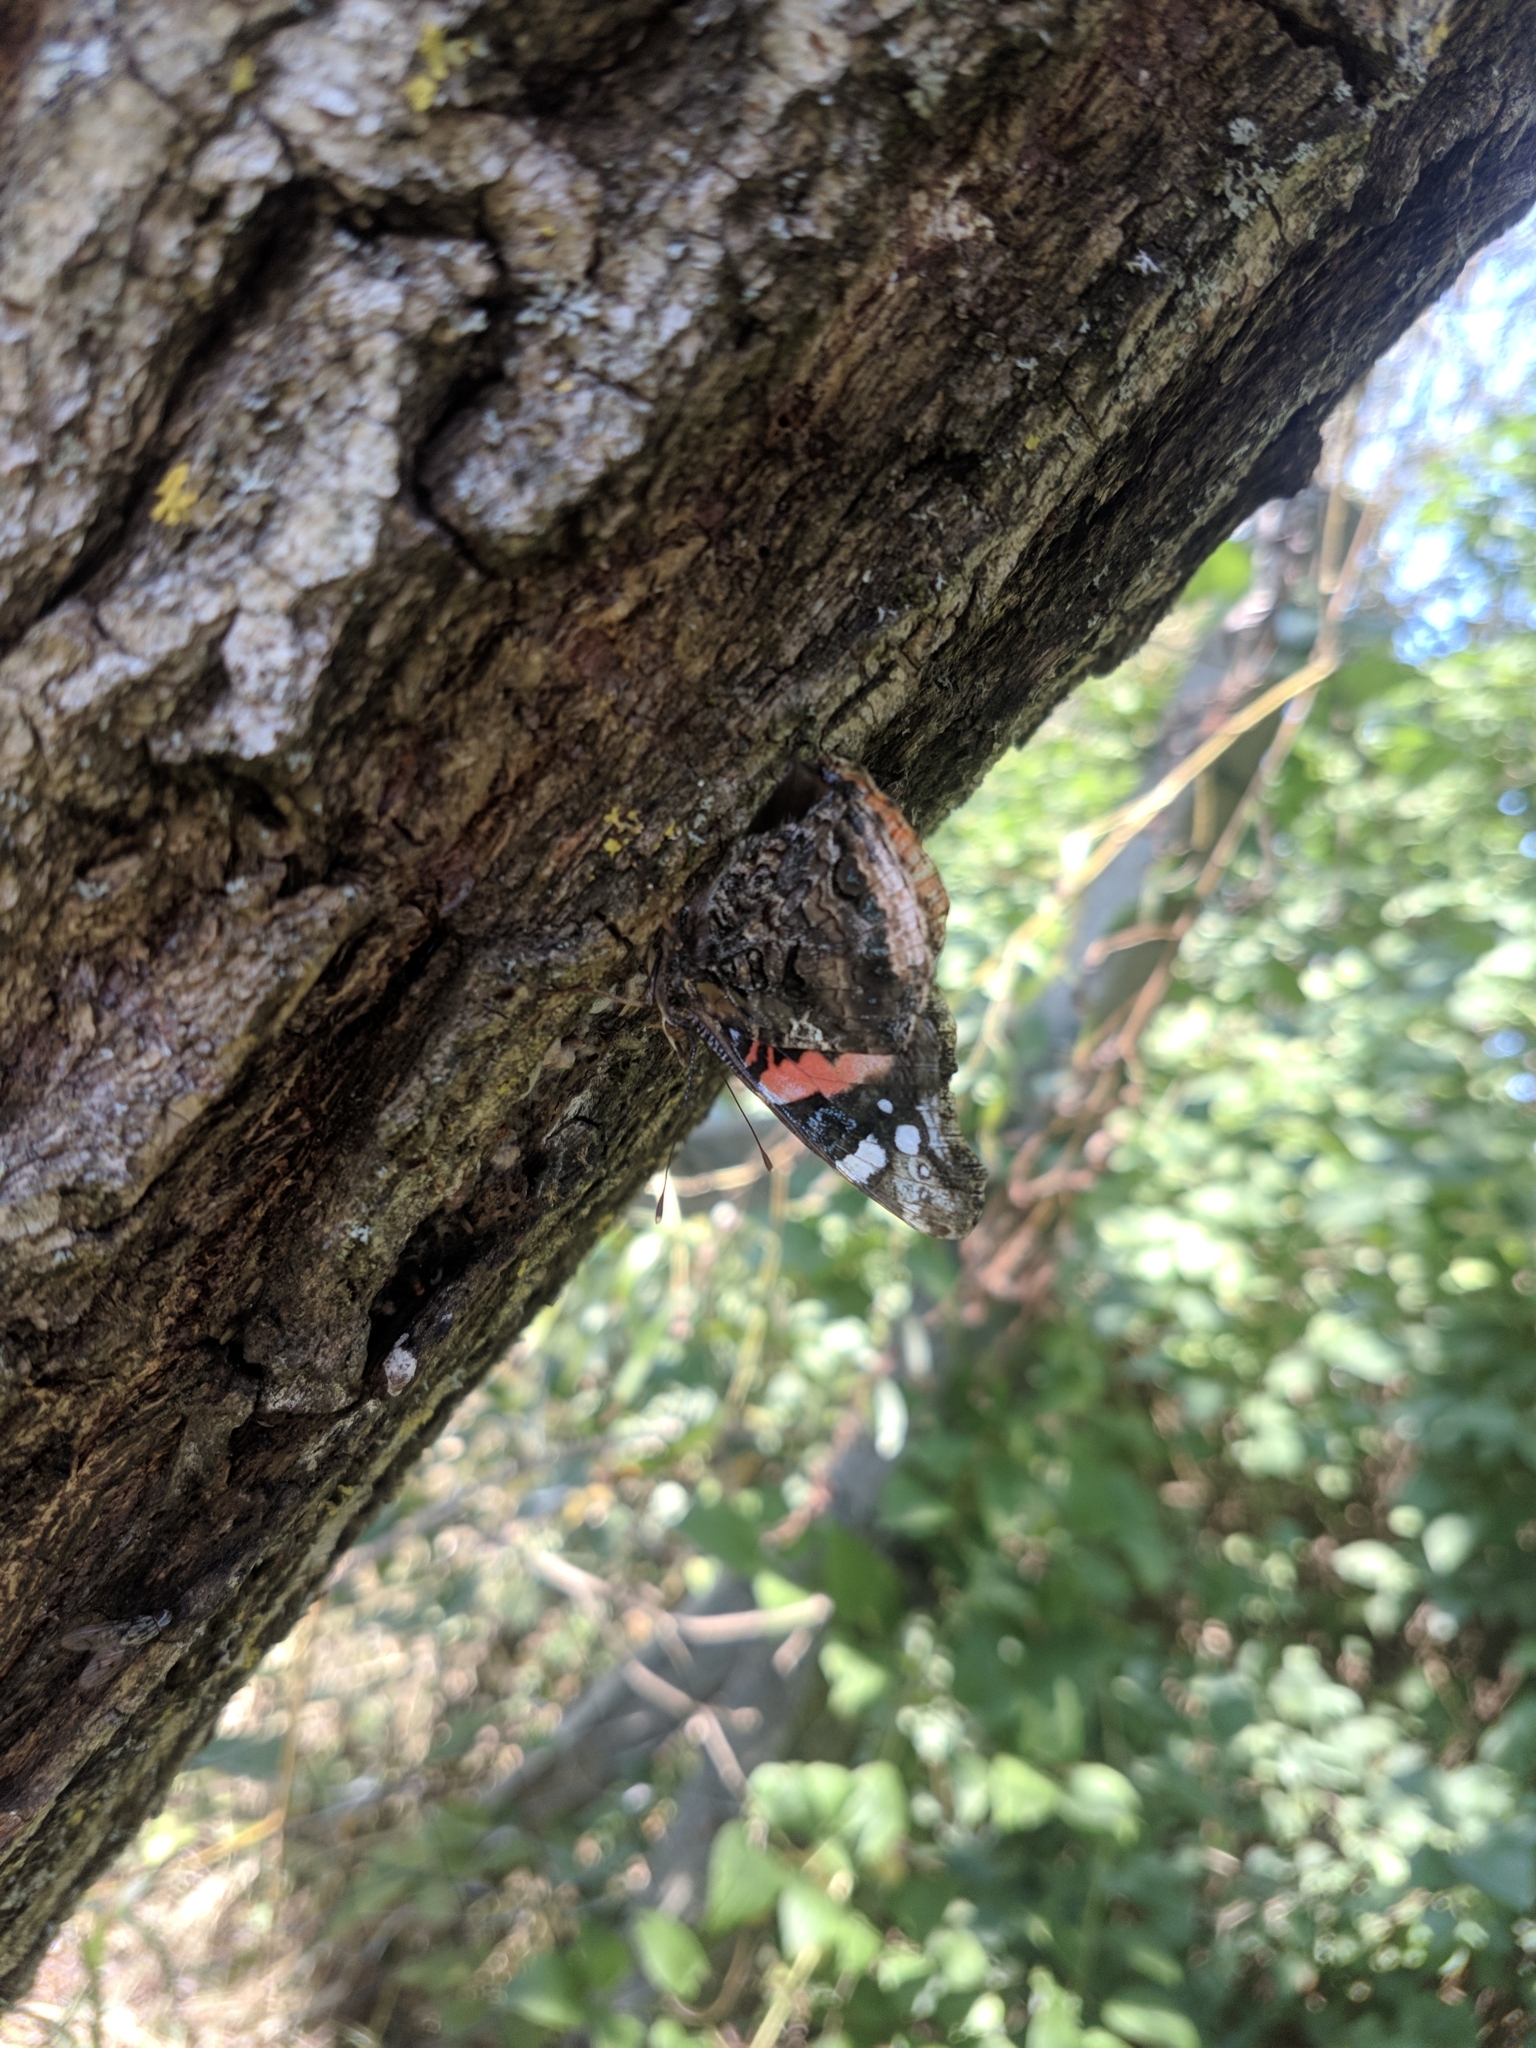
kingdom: Animalia
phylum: Arthropoda
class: Insecta
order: Lepidoptera
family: Nymphalidae
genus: Vanessa
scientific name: Vanessa atalanta
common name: Red admiral
